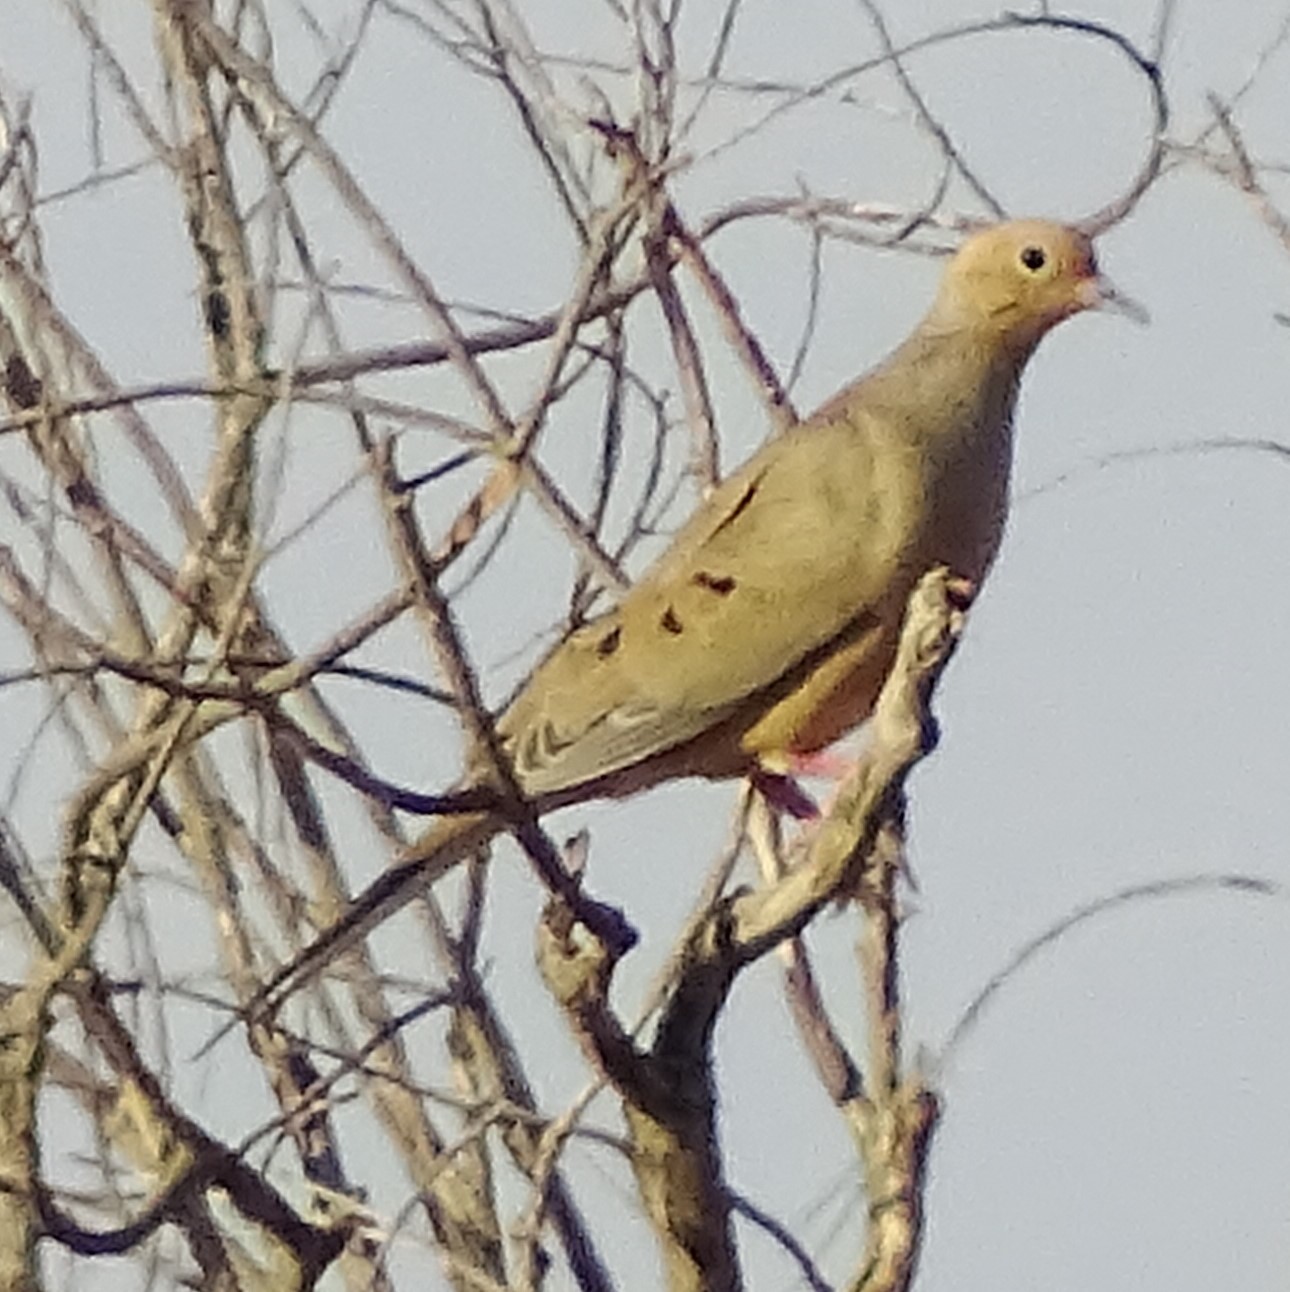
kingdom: Animalia
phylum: Chordata
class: Aves
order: Columbiformes
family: Columbidae
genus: Zenaida
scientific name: Zenaida macroura
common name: Mourning dove
